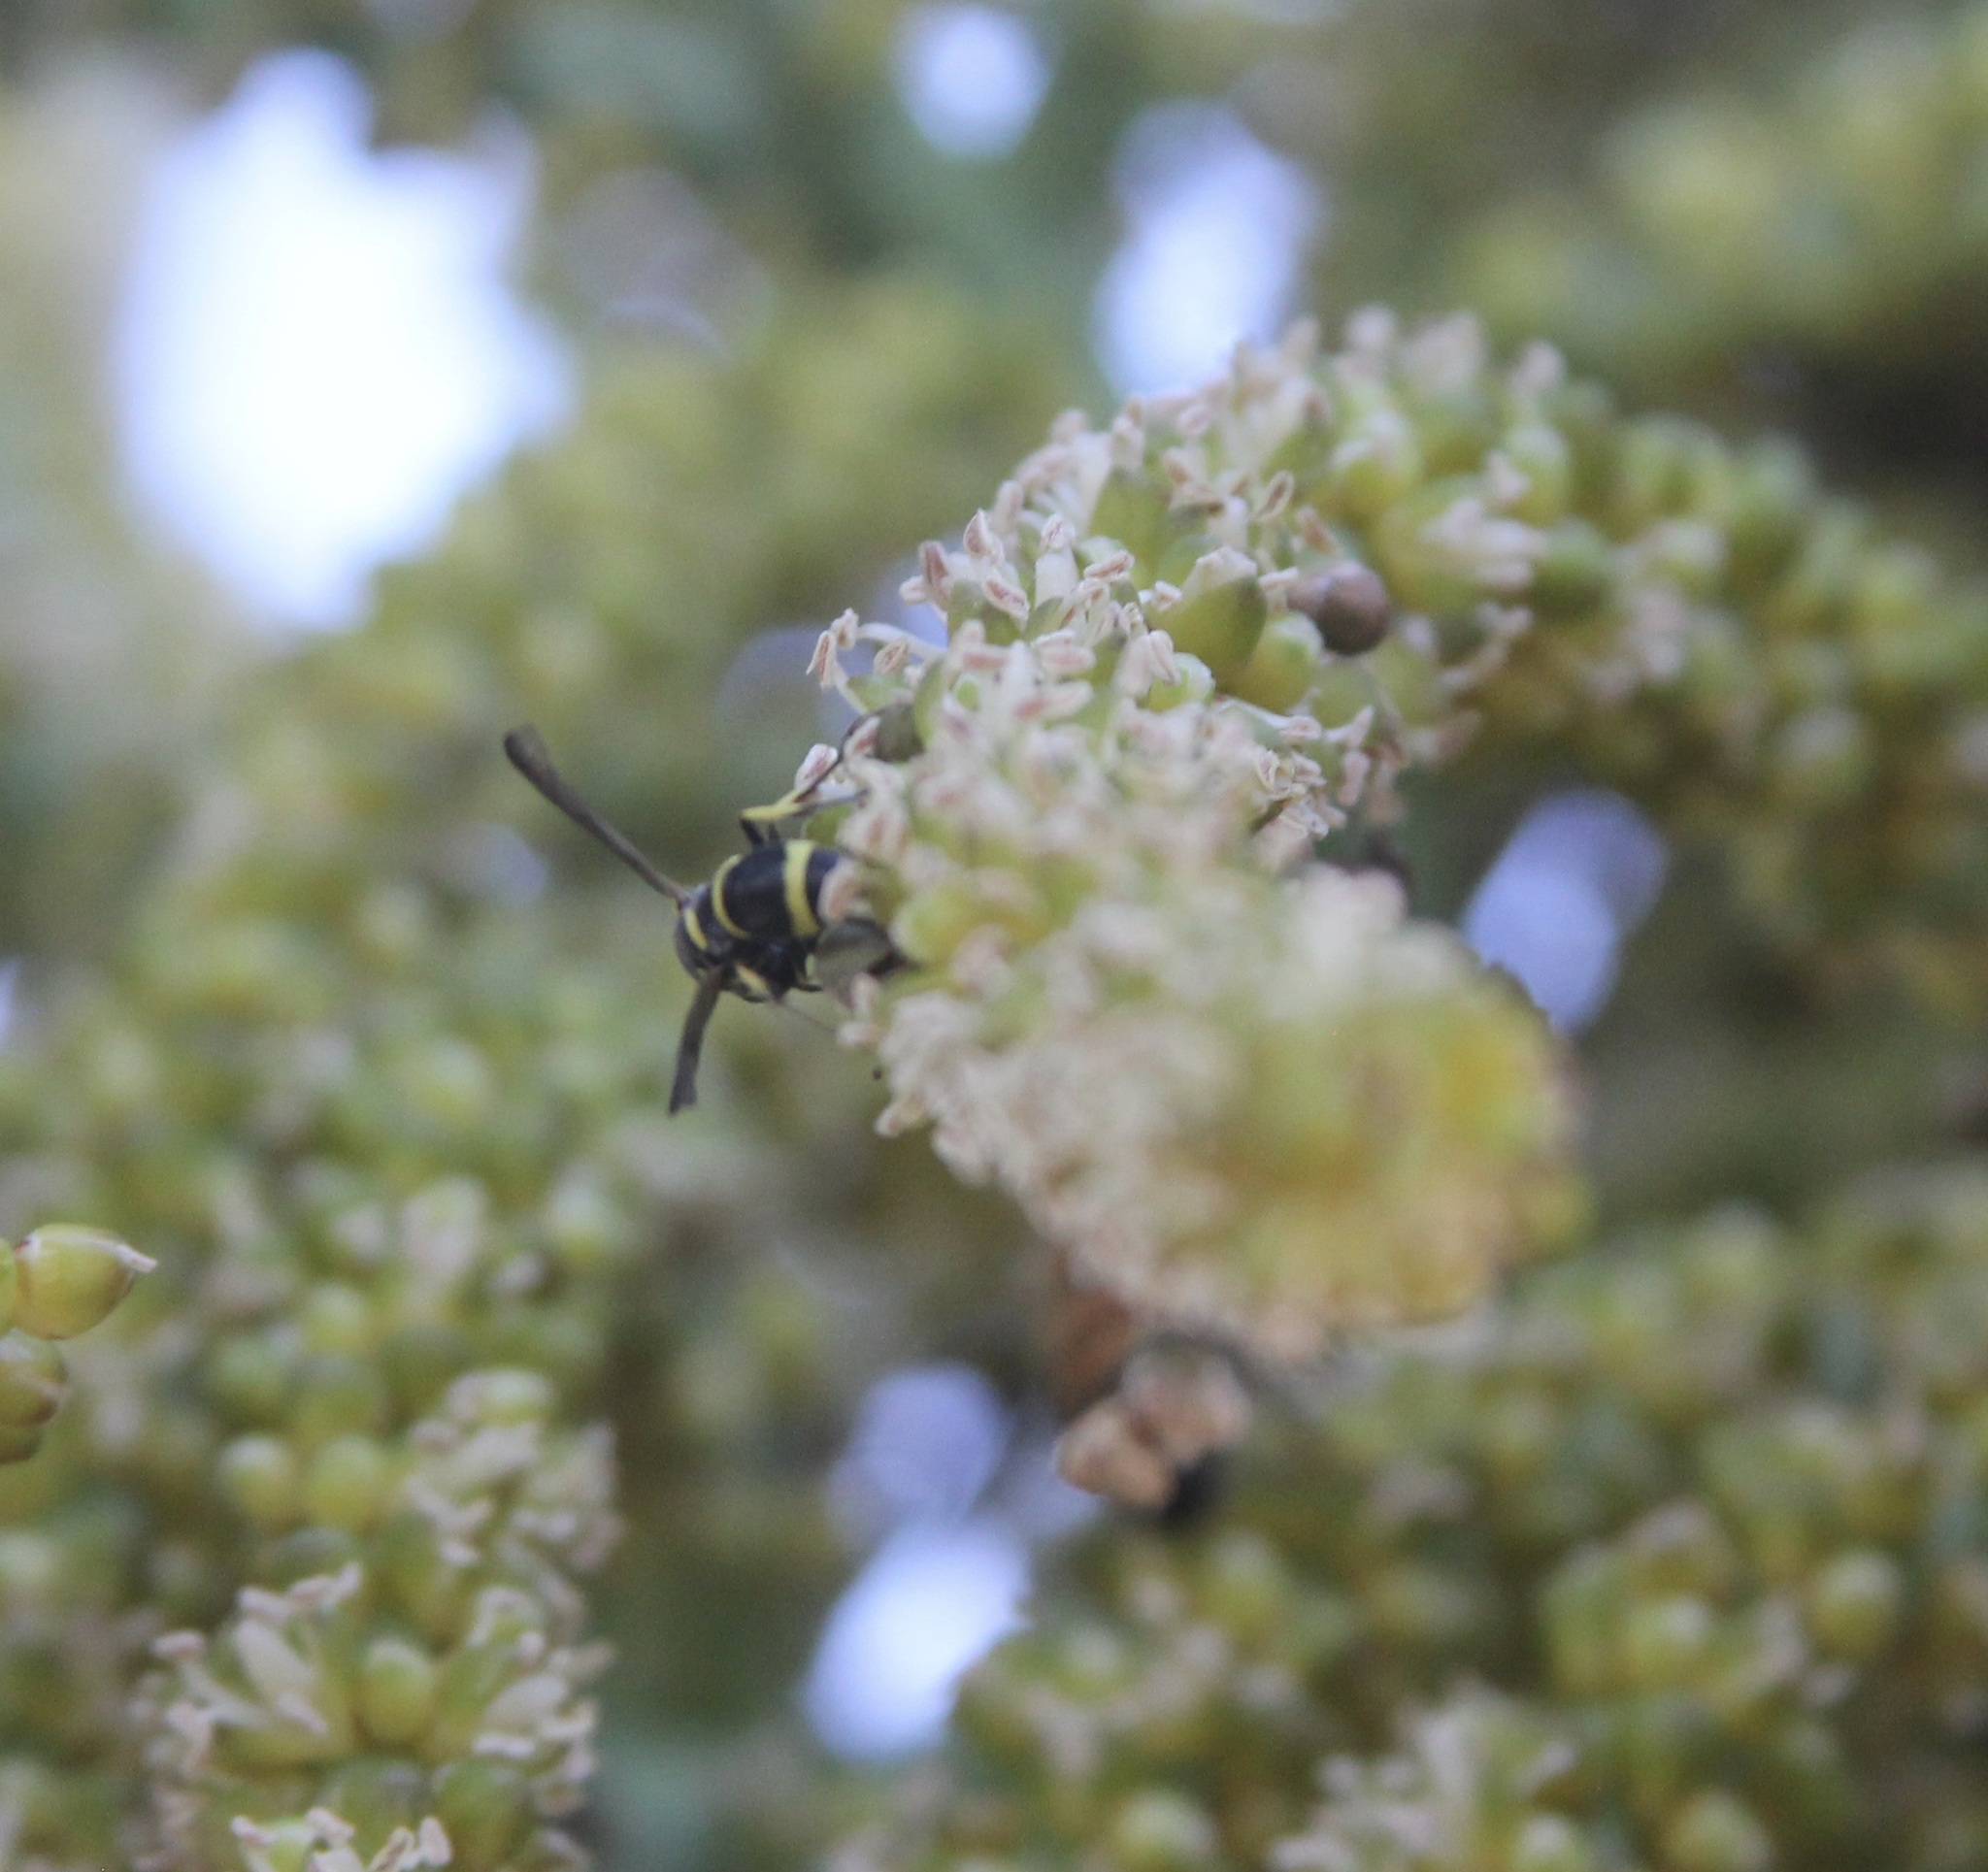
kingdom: Animalia
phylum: Arthropoda
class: Insecta
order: Hymenoptera
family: Eumenidae
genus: Parancistrocerus
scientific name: Parancistrocerus declivatus
